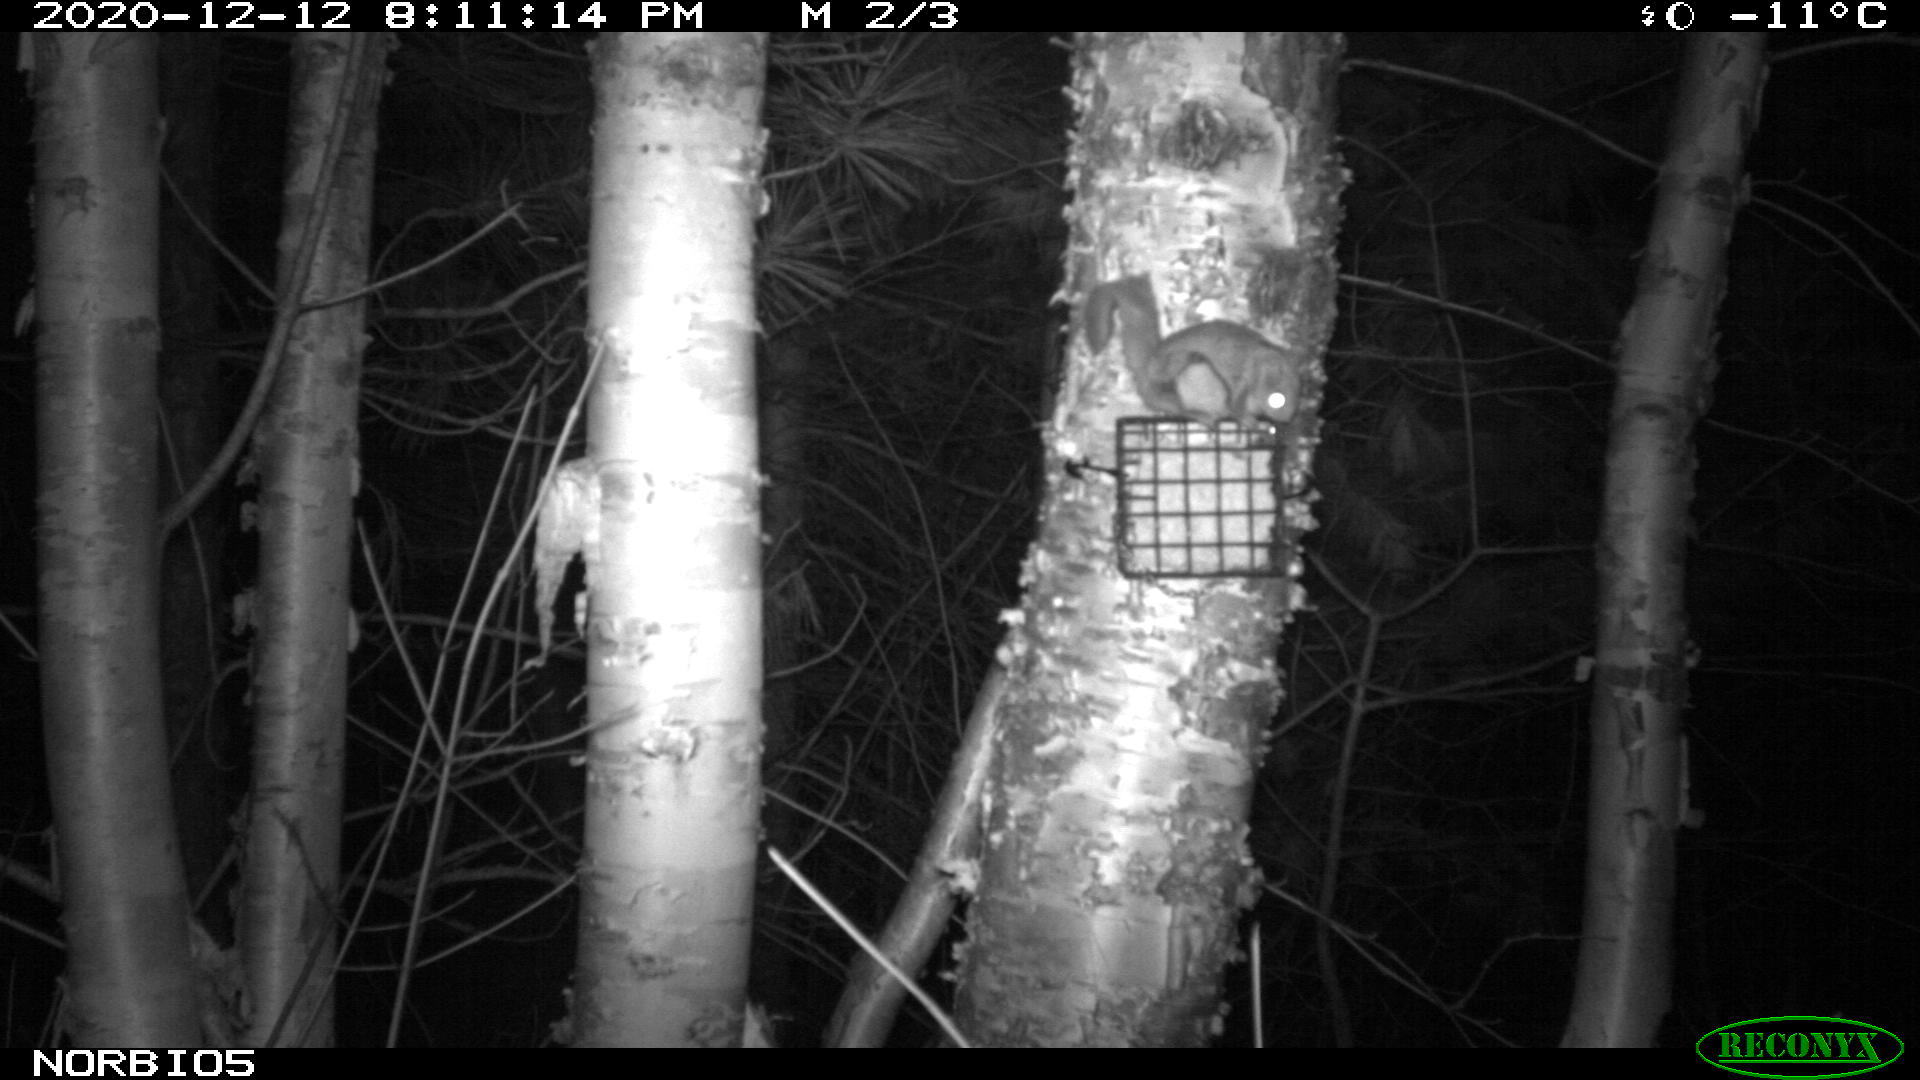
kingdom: Animalia
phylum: Chordata
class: Mammalia
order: Rodentia
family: Sciuridae
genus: Glaucomys
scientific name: Glaucomys sabrinus
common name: Northern flying squirrel
